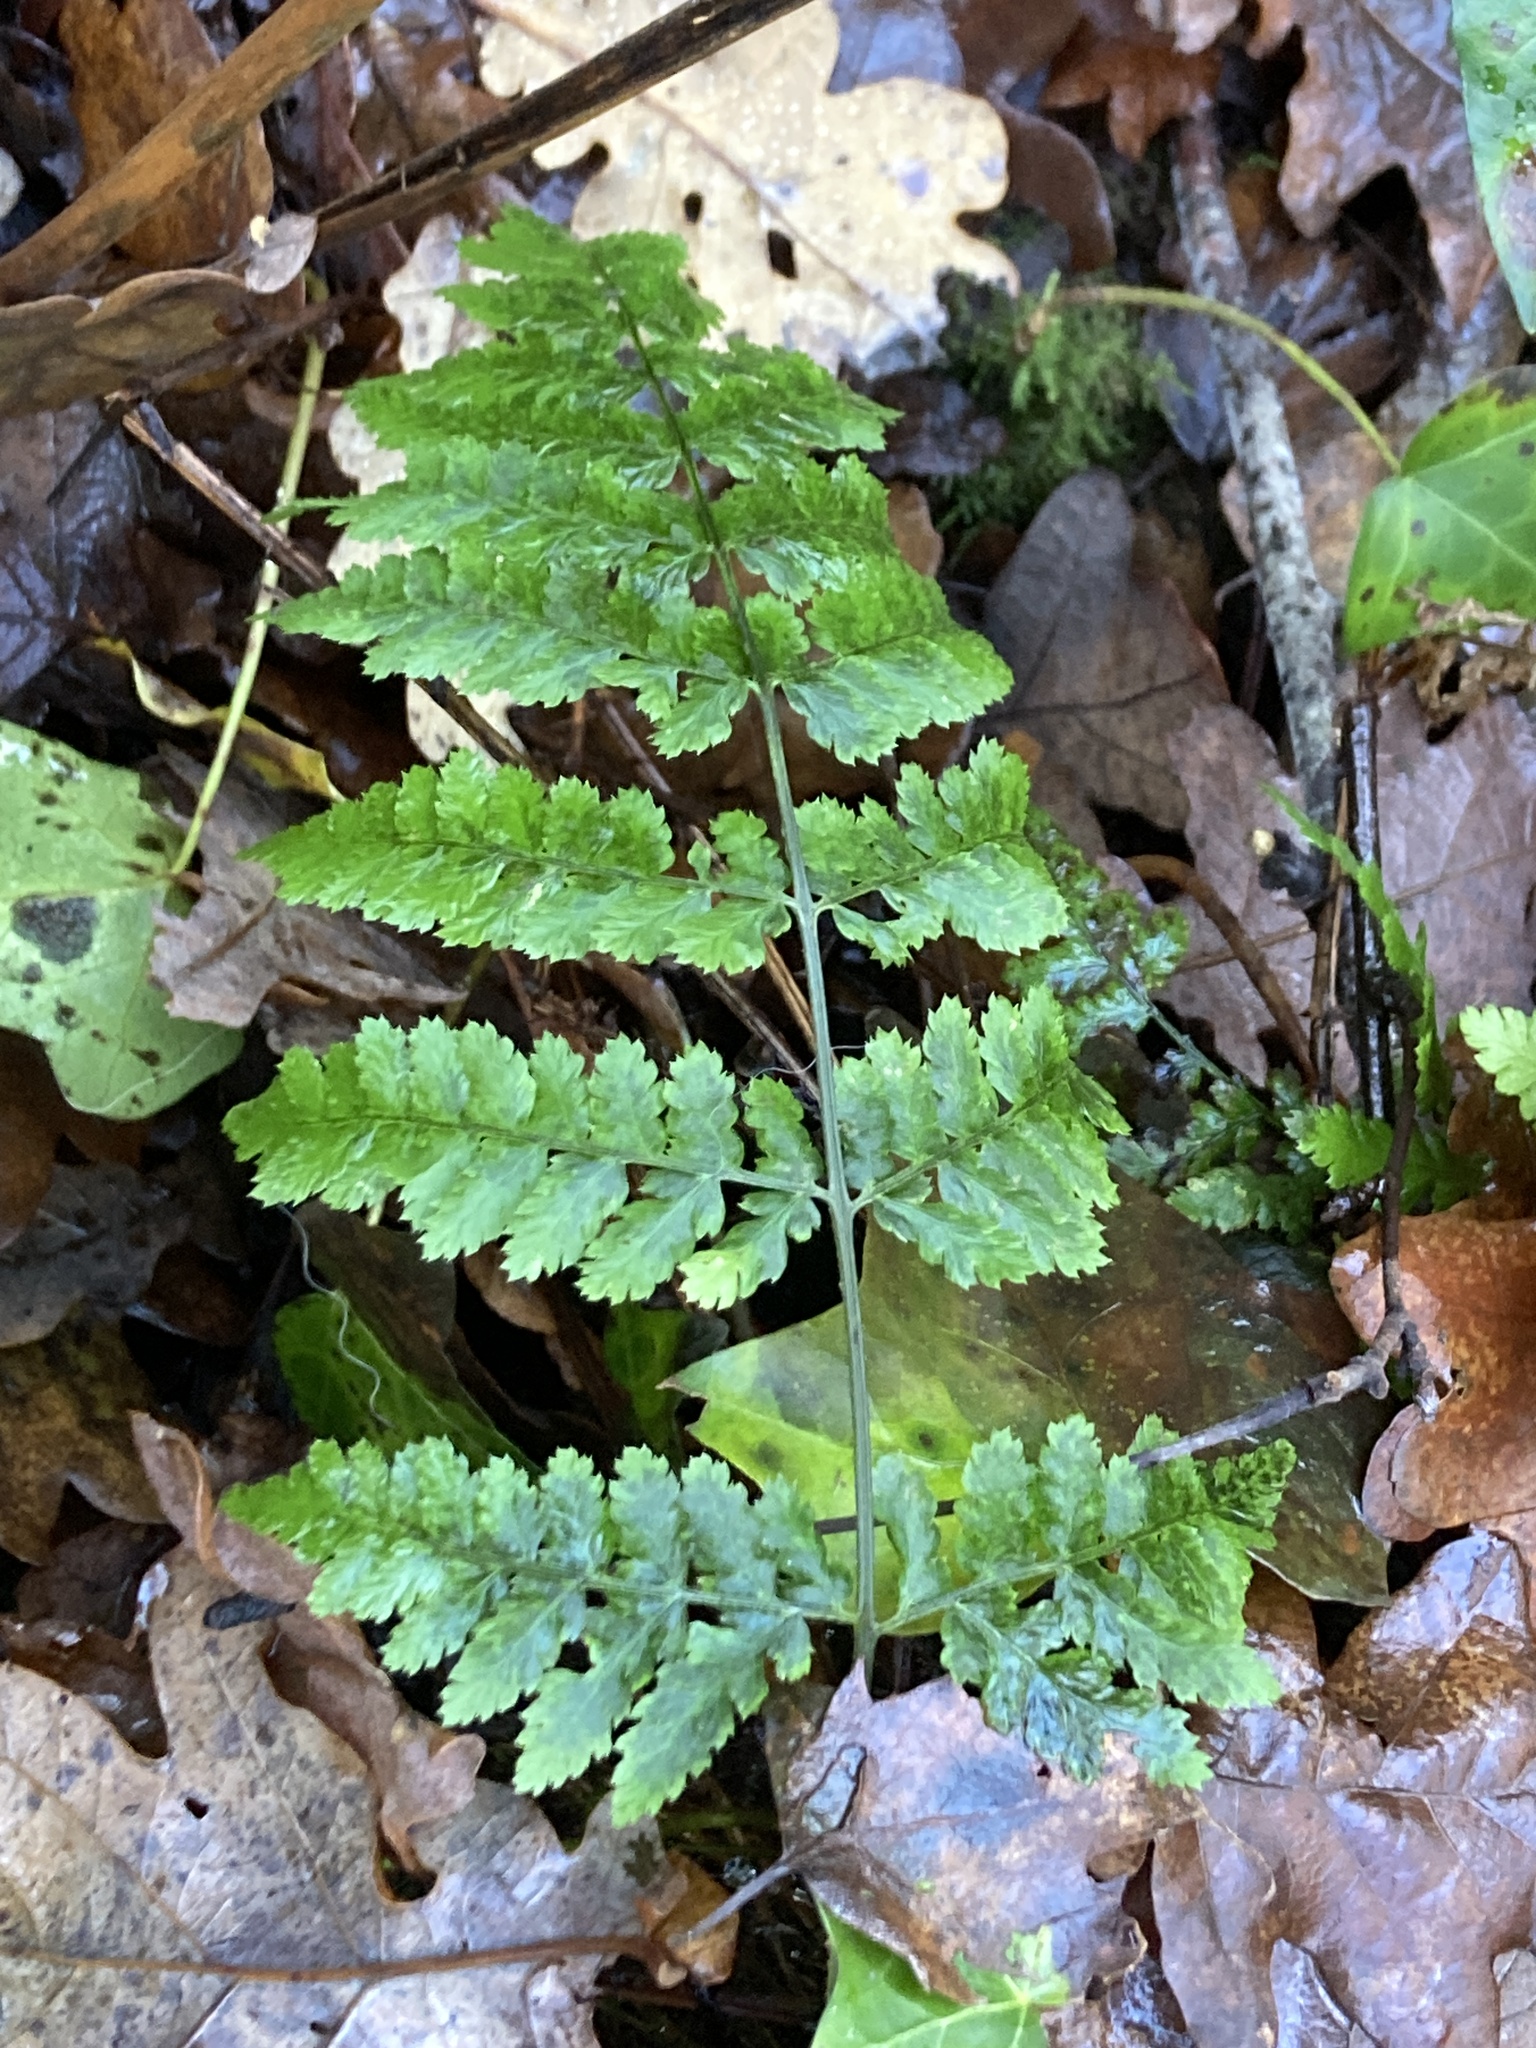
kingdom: Plantae
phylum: Tracheophyta
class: Polypodiopsida
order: Polypodiales
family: Dryopteridaceae
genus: Dryopteris
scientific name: Dryopteris dilatata
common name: Broad buckler-fern
